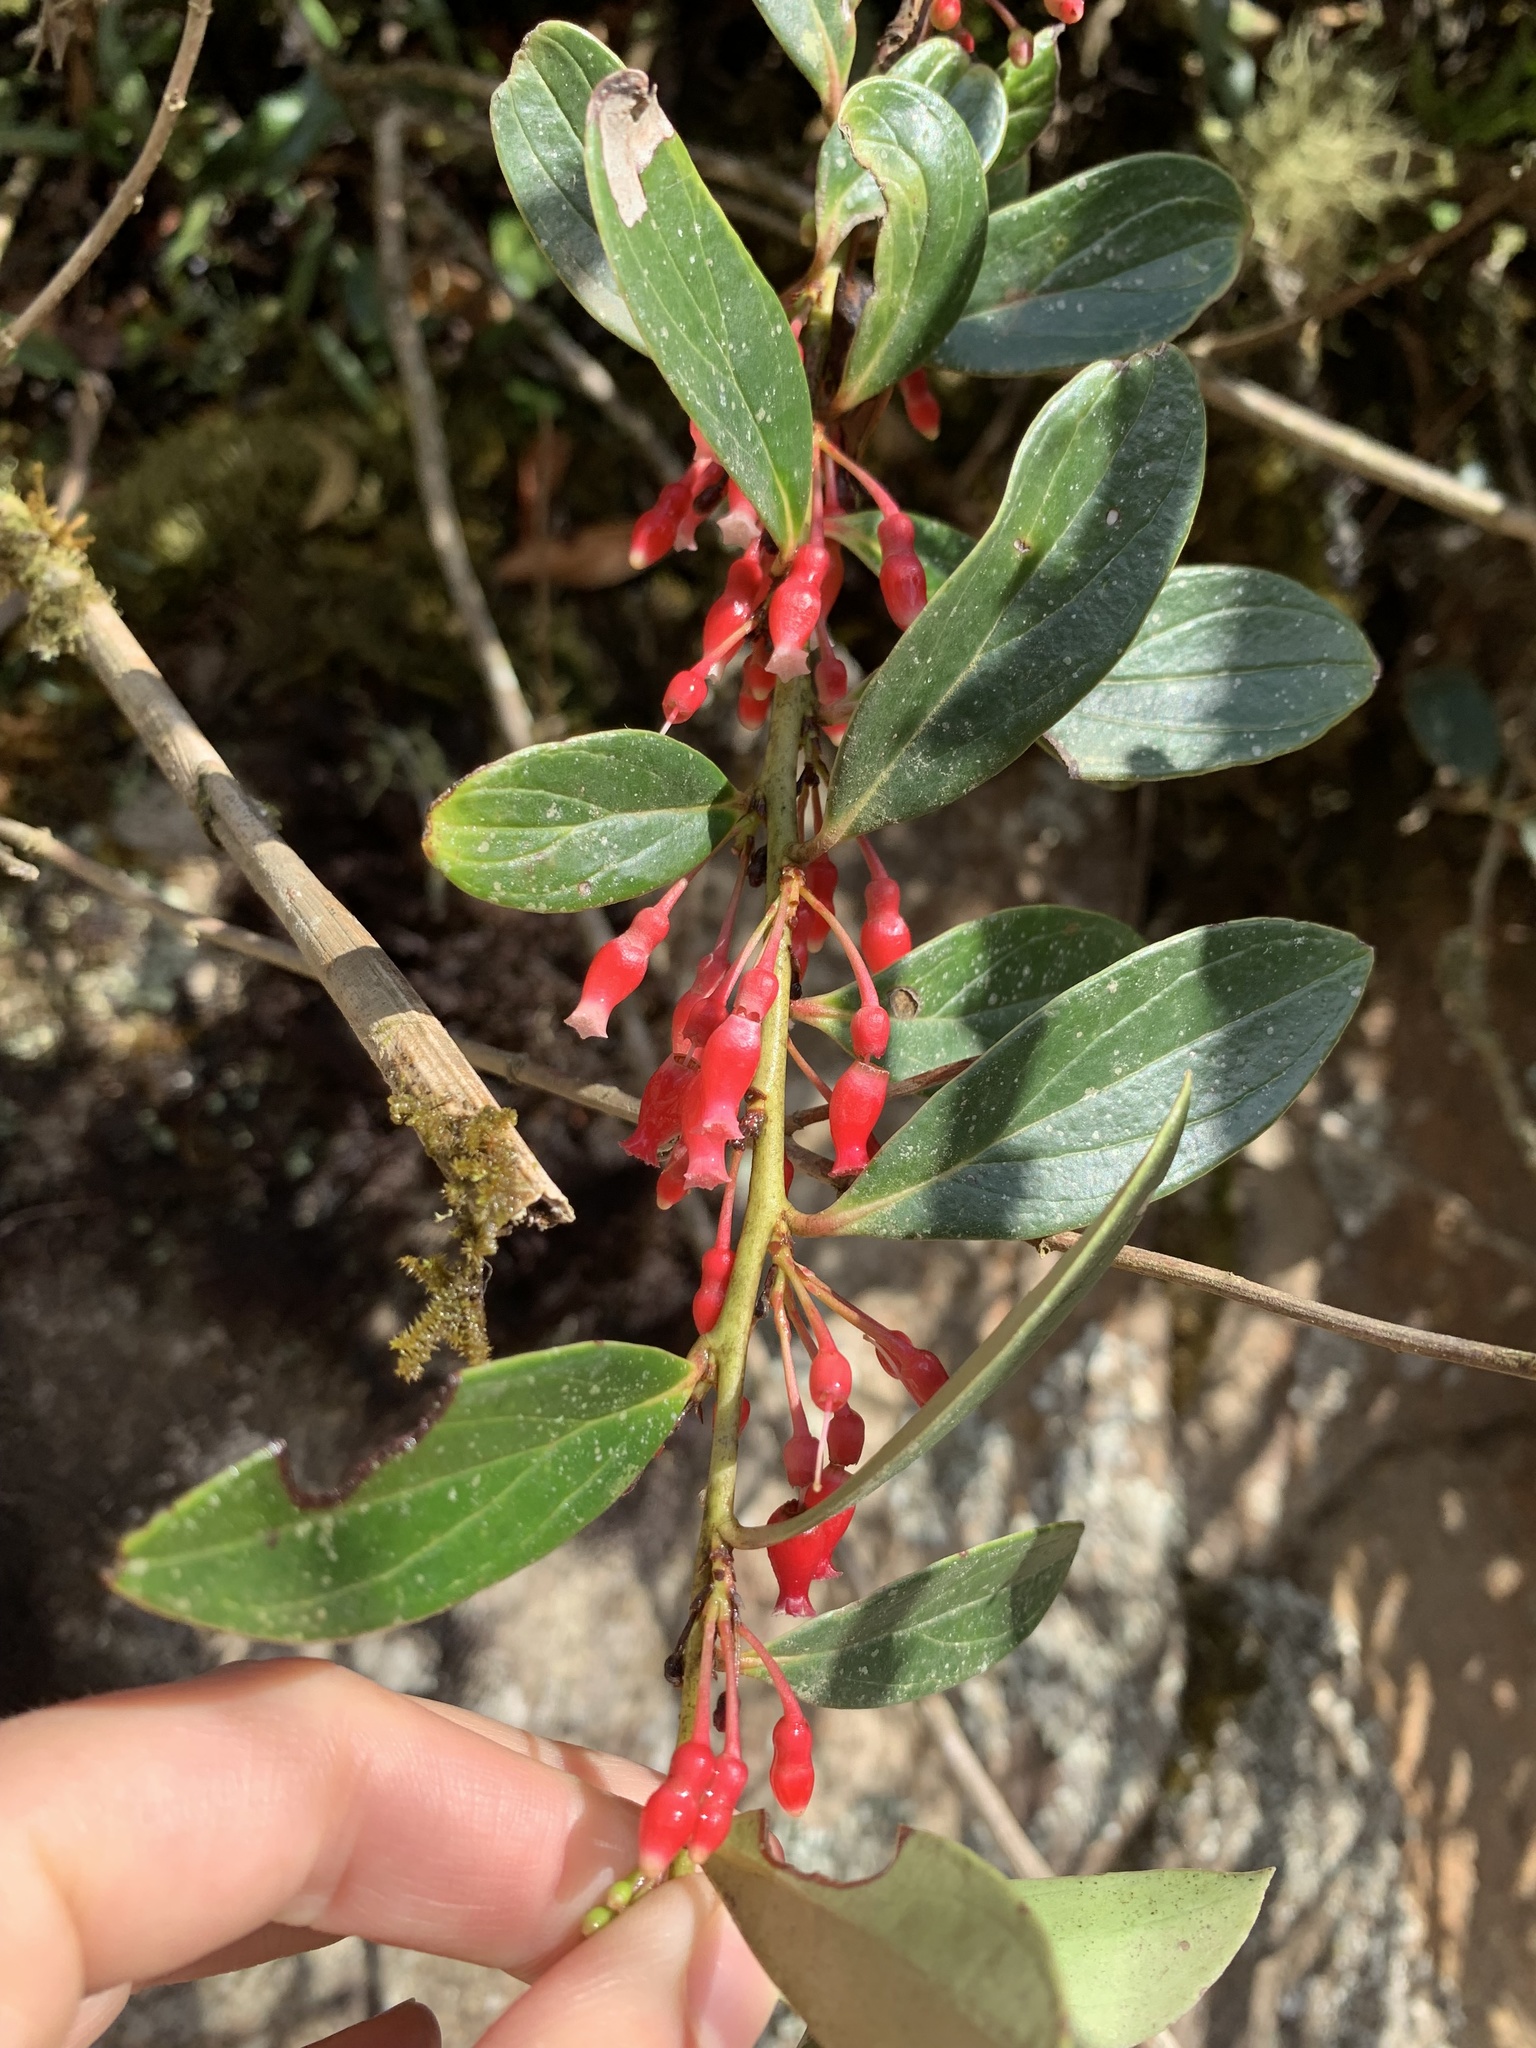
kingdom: Plantae
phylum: Tracheophyta
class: Magnoliopsida
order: Ericales
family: Ericaceae
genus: Thibaudia
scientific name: Thibaudia diphylla
